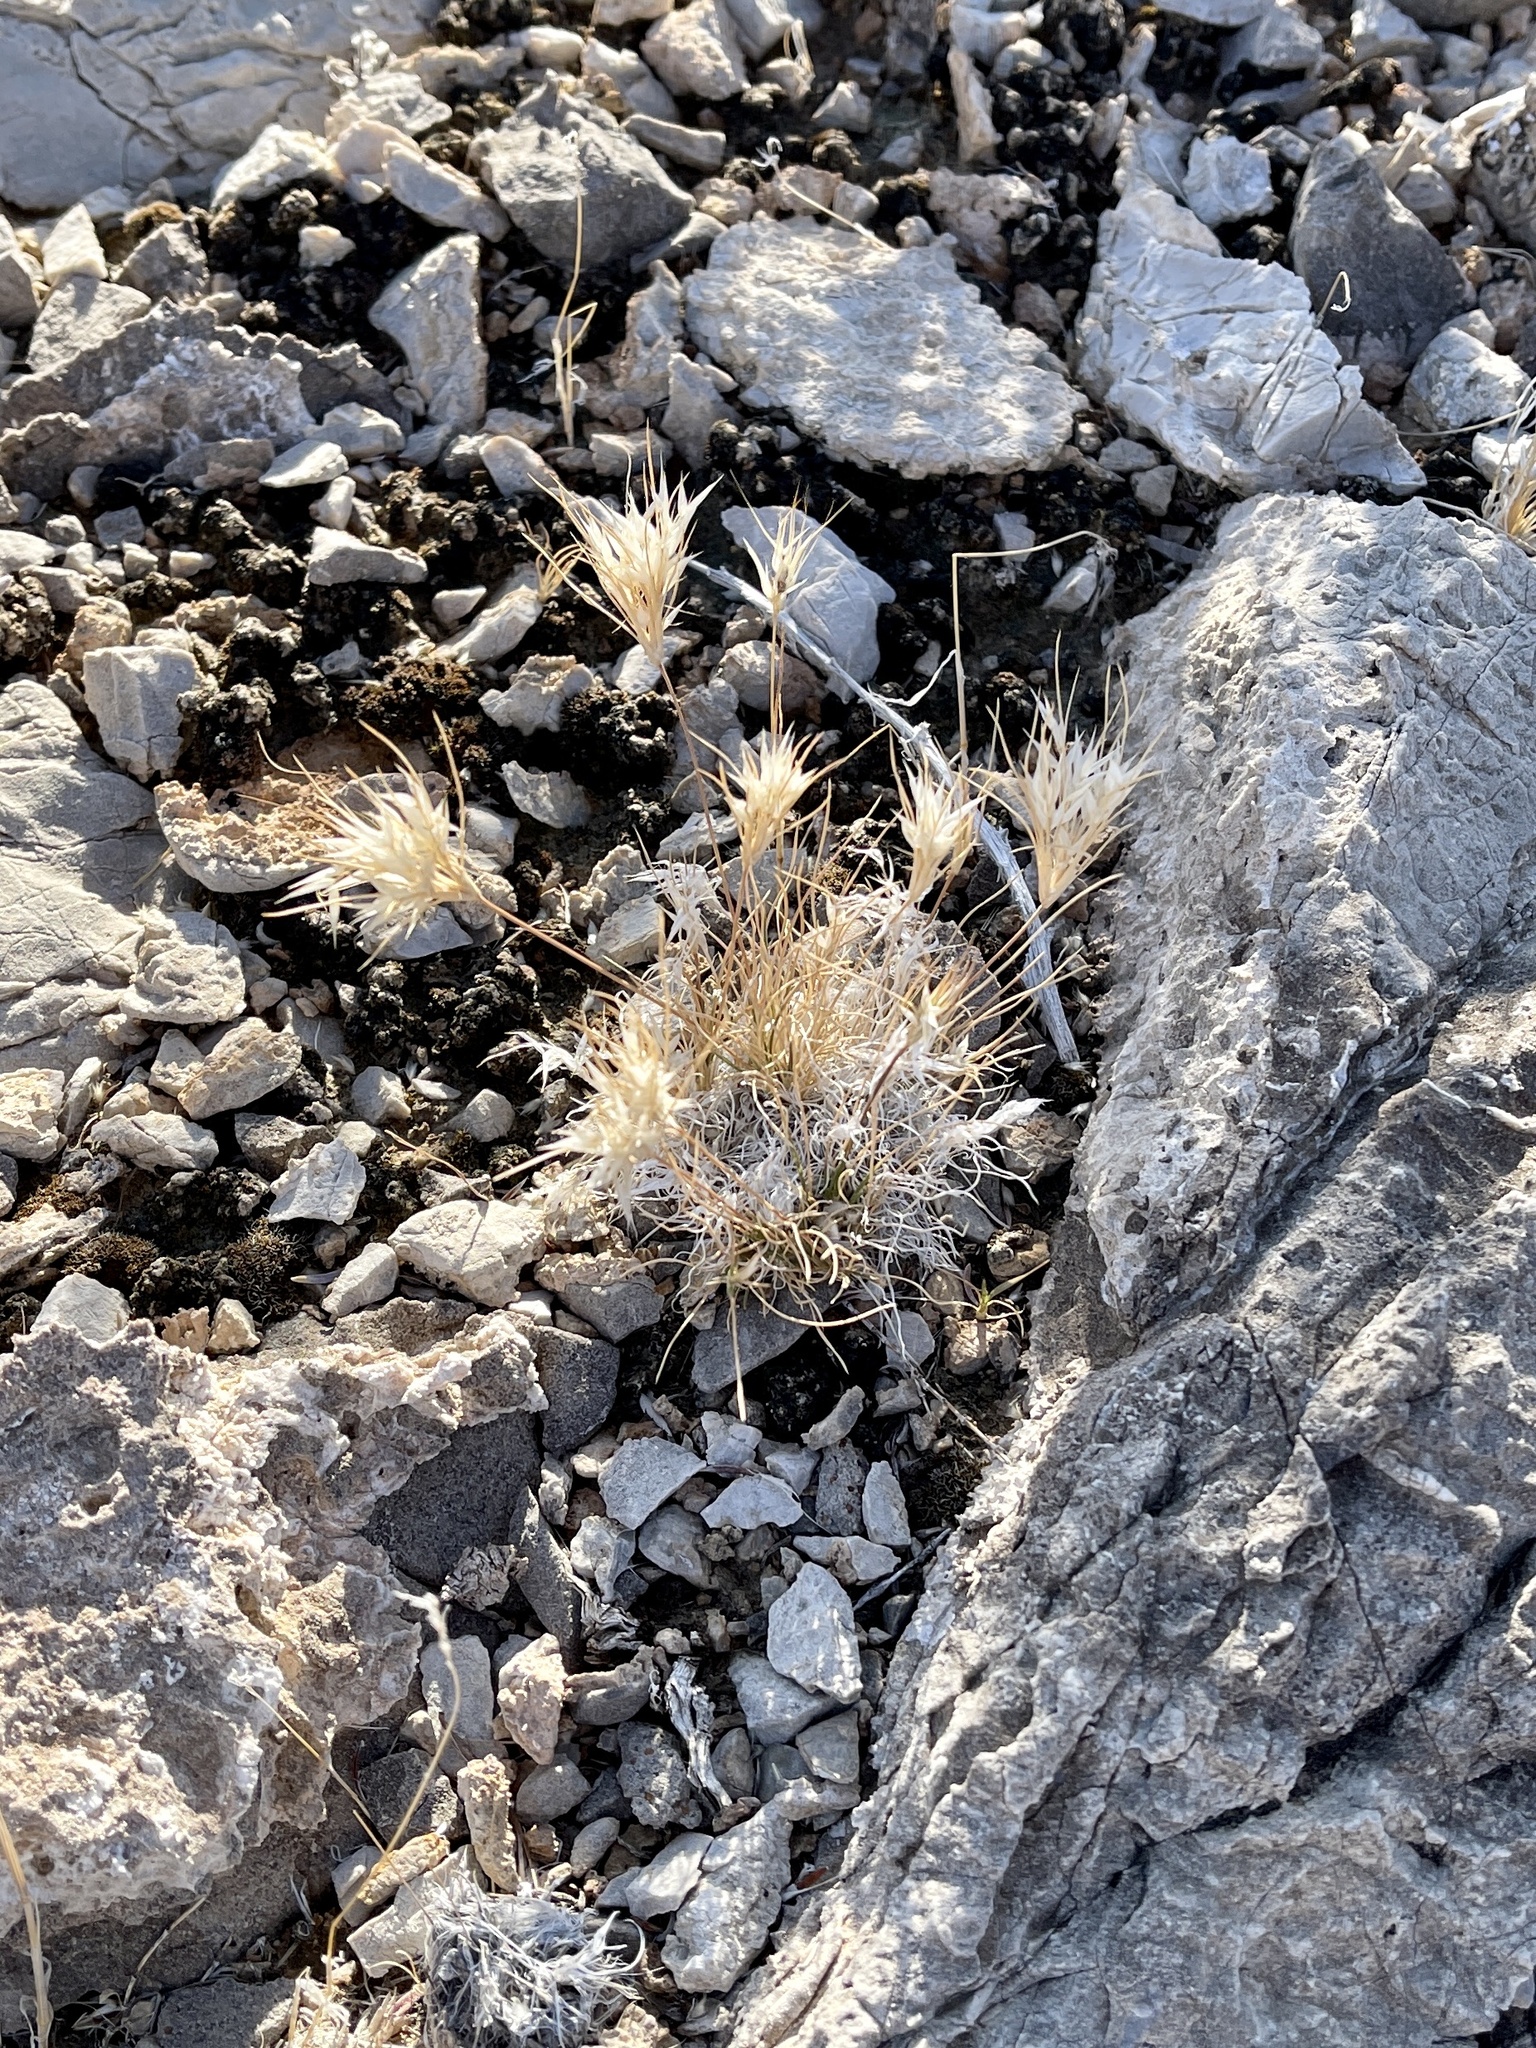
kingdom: Plantae
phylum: Tracheophyta
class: Liliopsida
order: Poales
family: Poaceae
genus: Dasyochloa
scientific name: Dasyochloa pulchella
